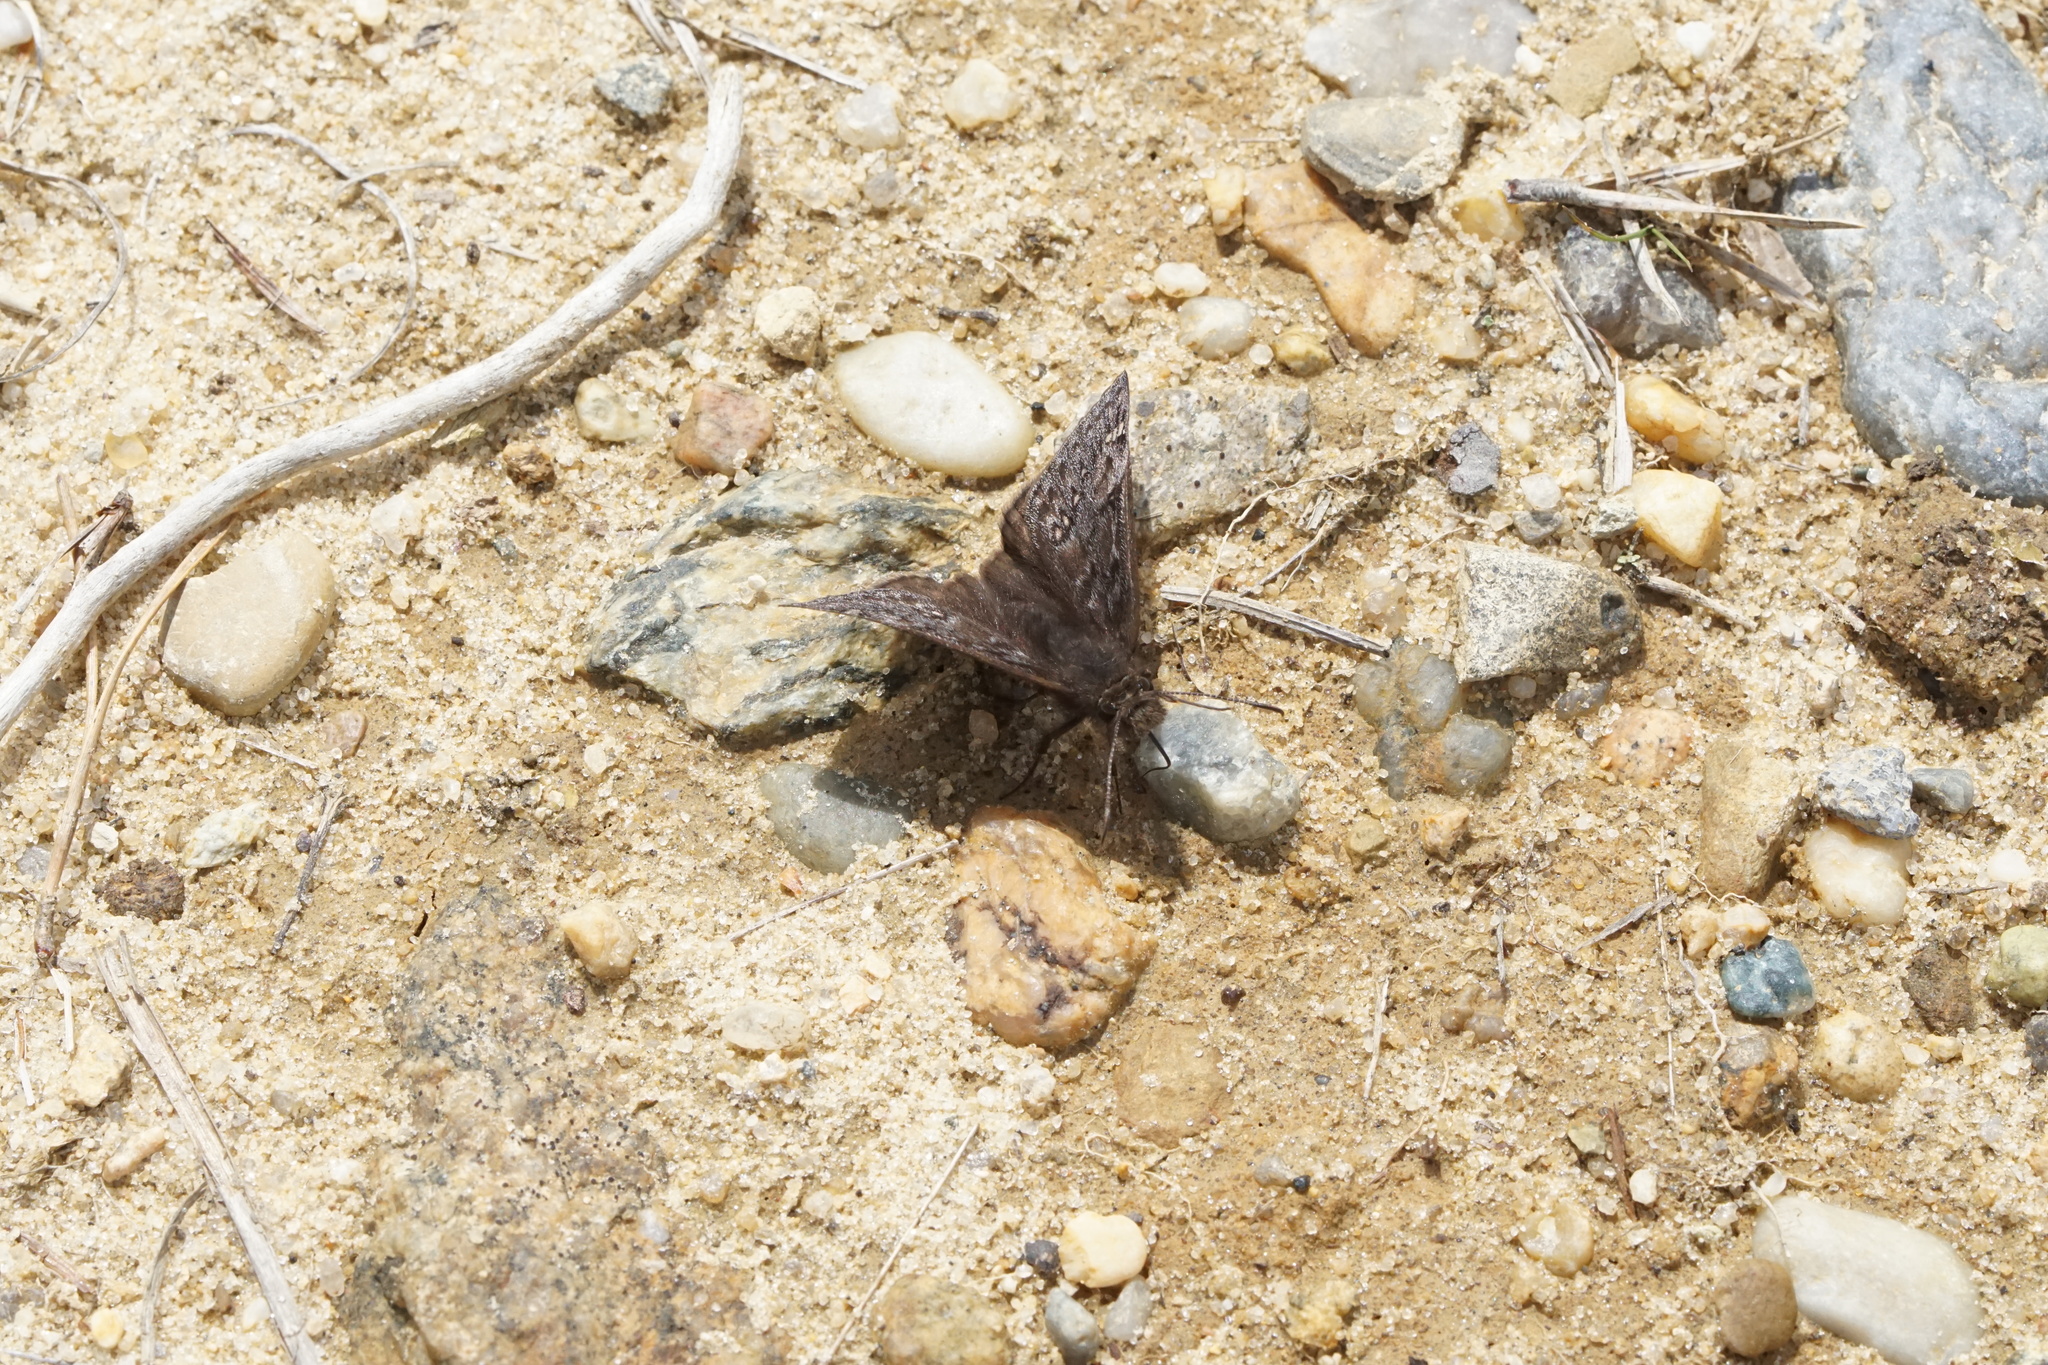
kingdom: Animalia
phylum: Arthropoda
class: Insecta
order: Lepidoptera
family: Hesperiidae
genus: Erynnis
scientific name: Erynnis juvenalis
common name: Juvenal's duskywing
